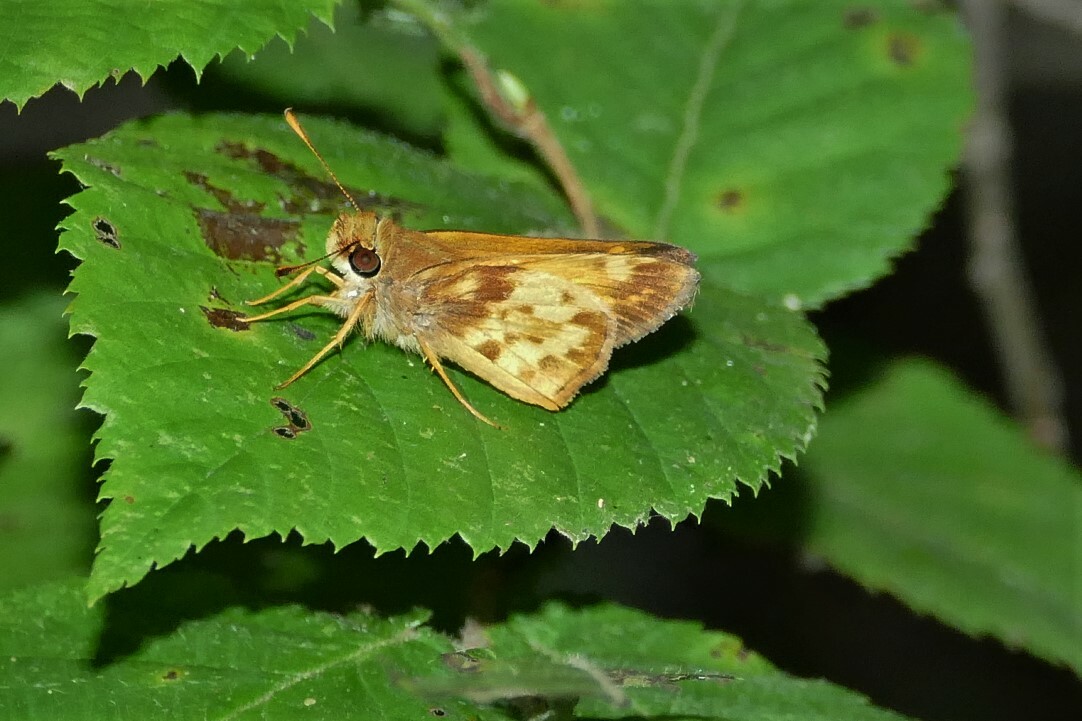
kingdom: Animalia
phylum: Arthropoda
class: Insecta
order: Lepidoptera
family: Hesperiidae
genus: Lon
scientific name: Lon zabulon
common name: Zabulon skipper
